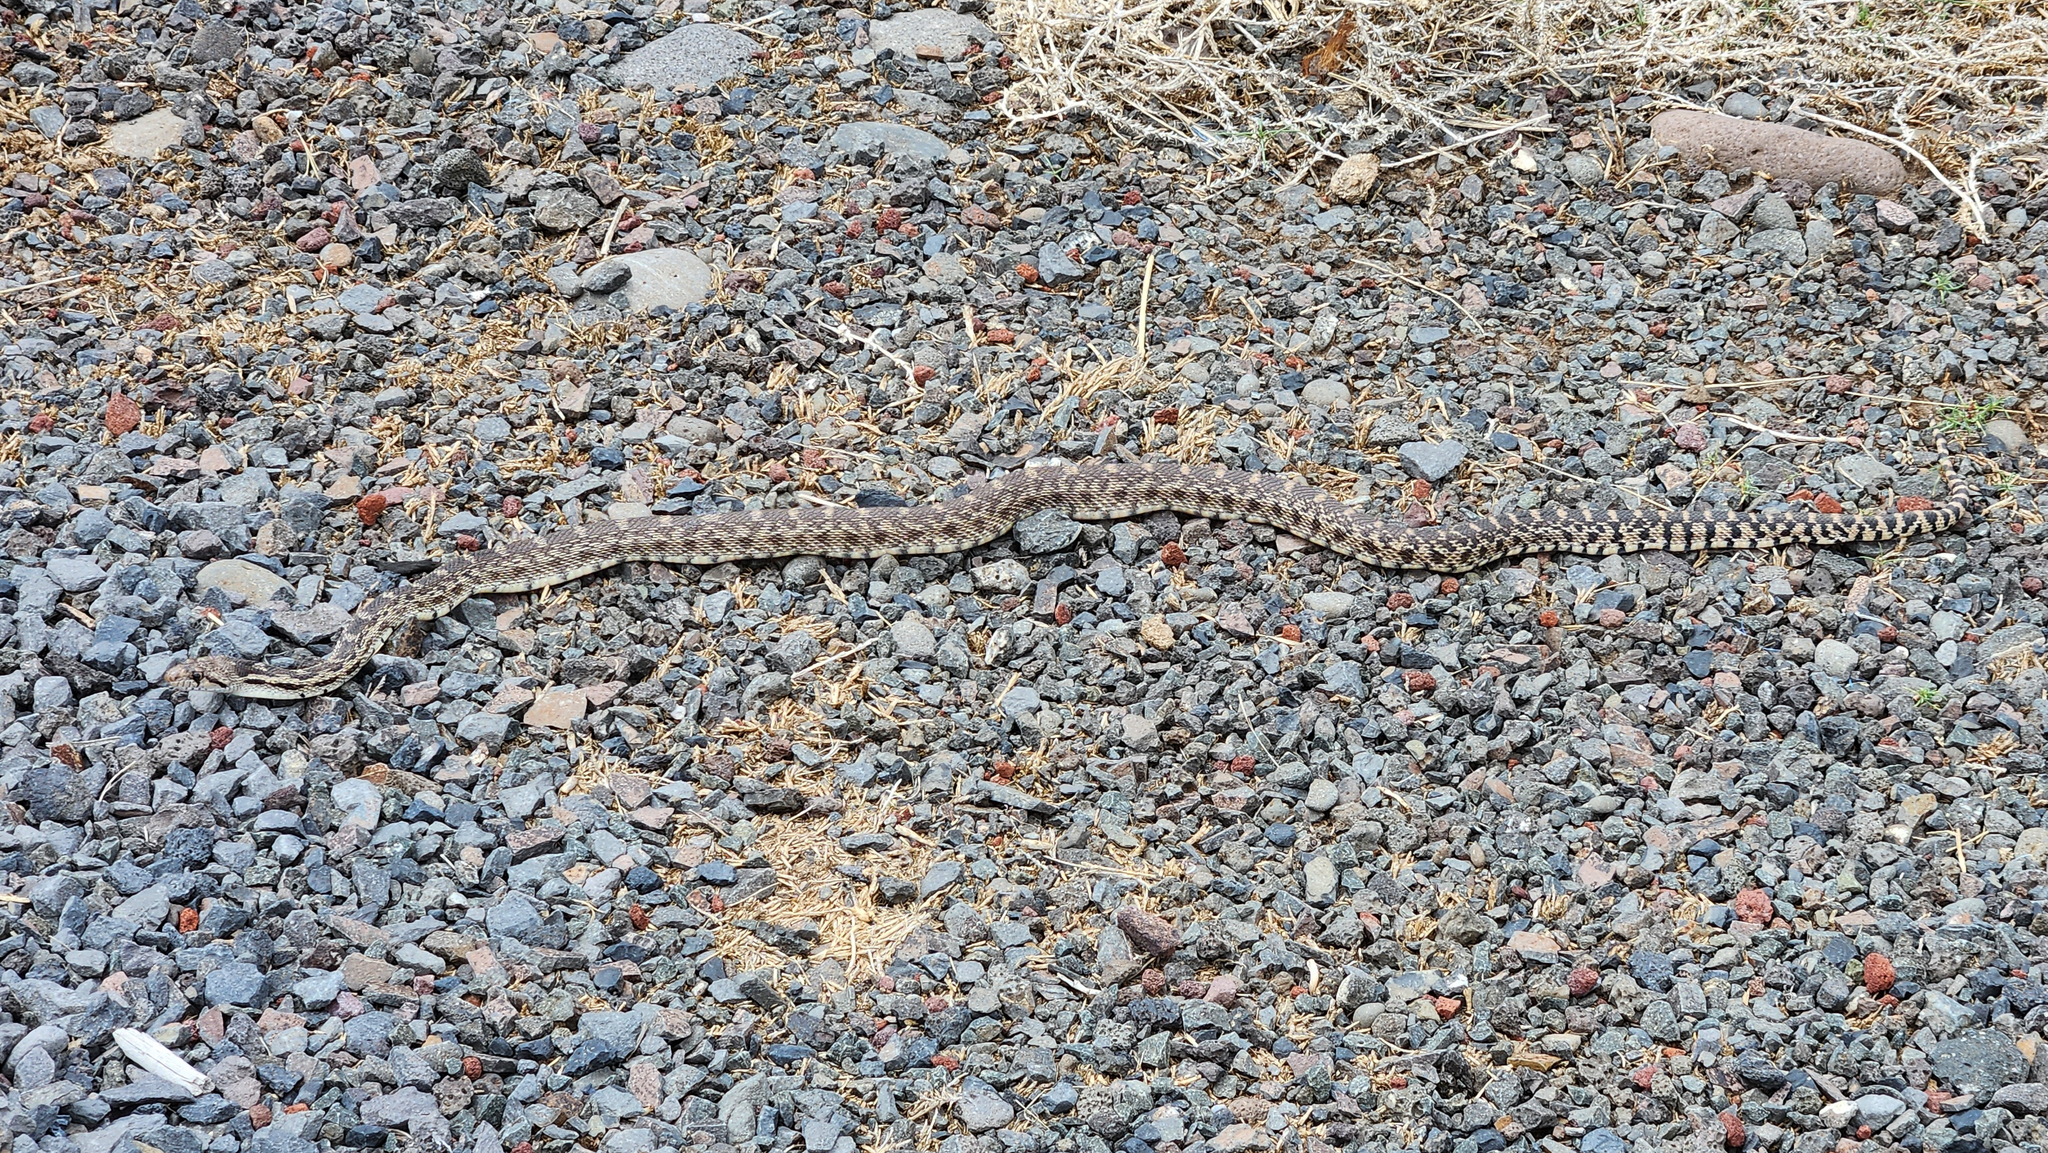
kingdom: Animalia
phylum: Chordata
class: Squamata
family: Colubridae
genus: Pituophis
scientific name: Pituophis catenifer
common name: Gopher snake
